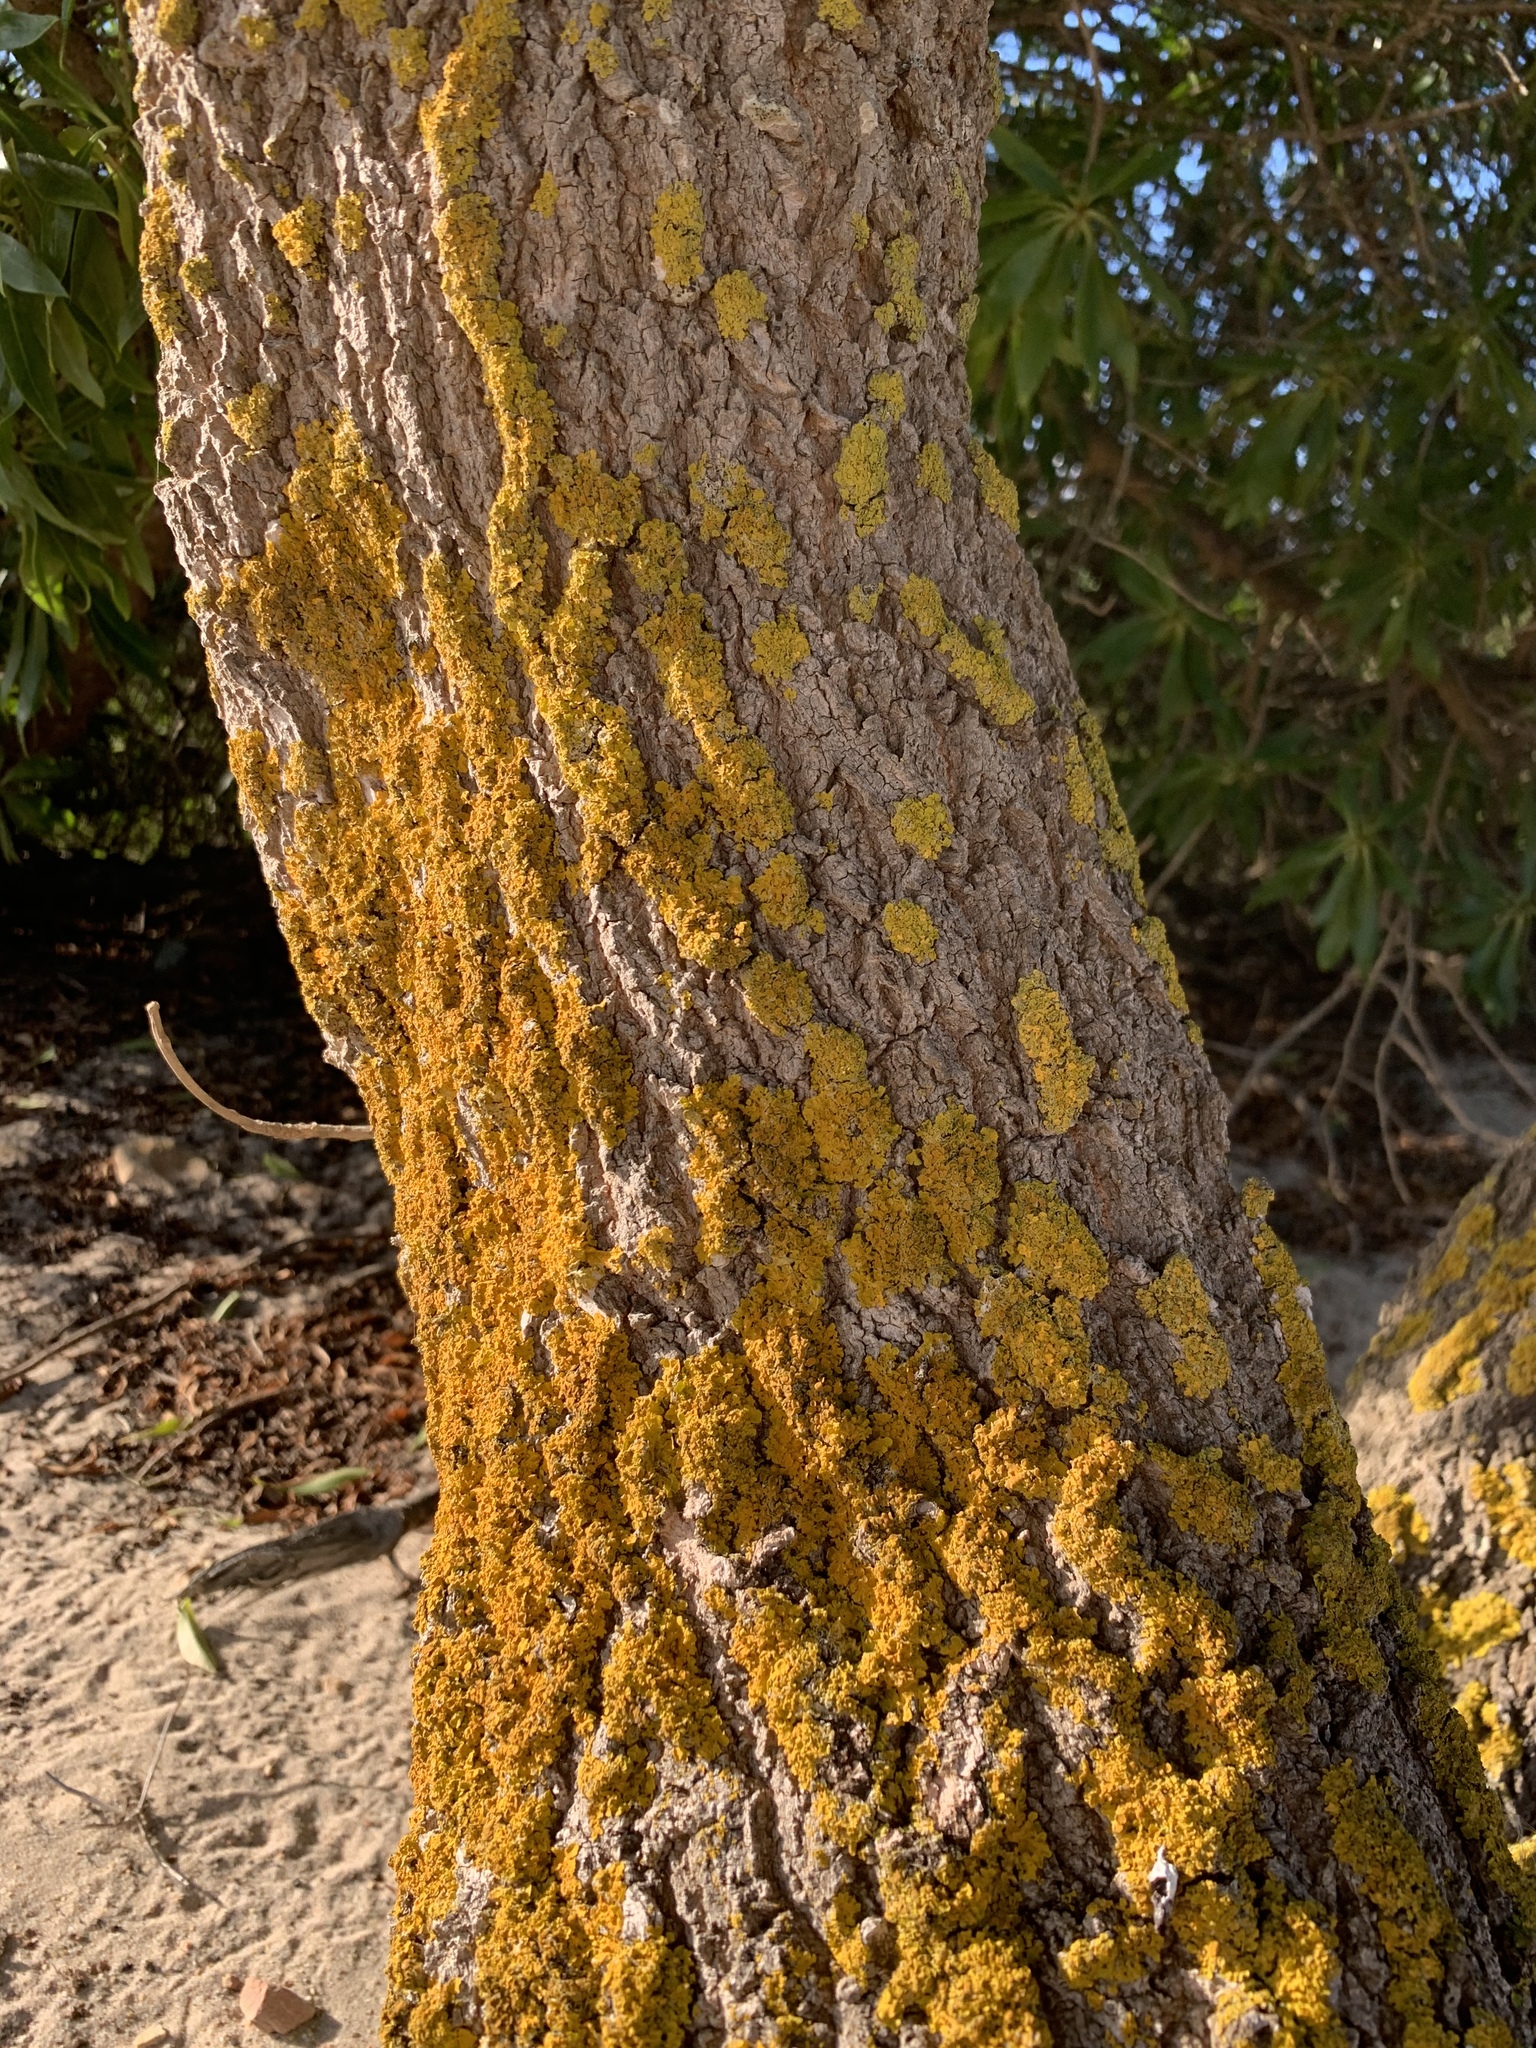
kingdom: Fungi
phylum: Ascomycota
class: Lecanoromycetes
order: Teloschistales
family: Teloschistaceae
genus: Xanthoria
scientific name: Xanthoria parietina
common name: Common orange lichen
